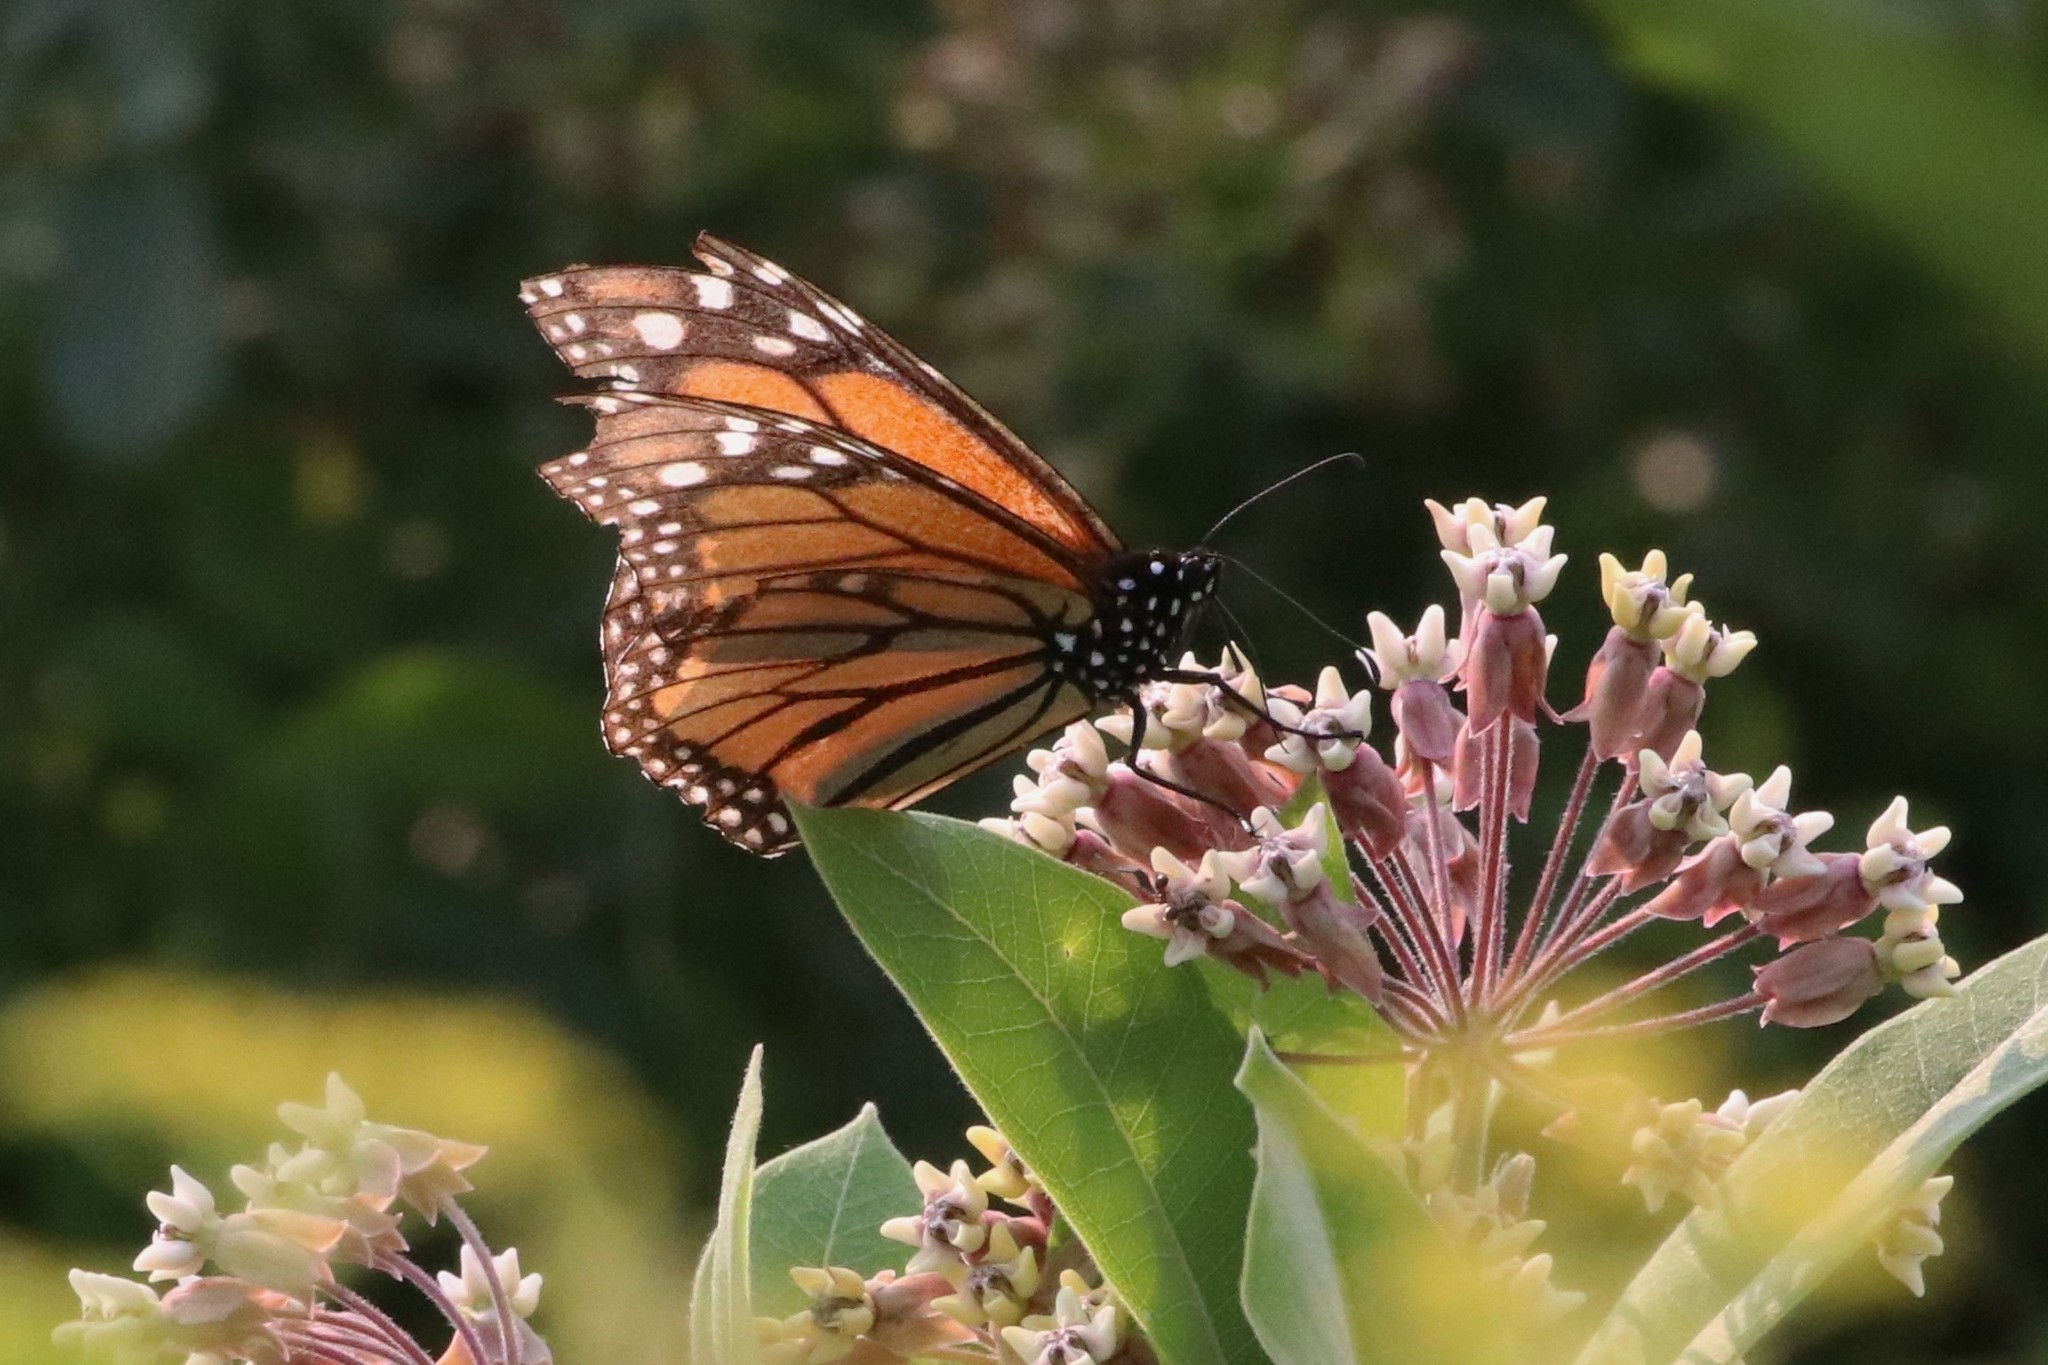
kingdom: Plantae
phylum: Tracheophyta
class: Magnoliopsida
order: Gentianales
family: Apocynaceae
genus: Asclepias
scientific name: Asclepias syriaca
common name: Common milkweed
